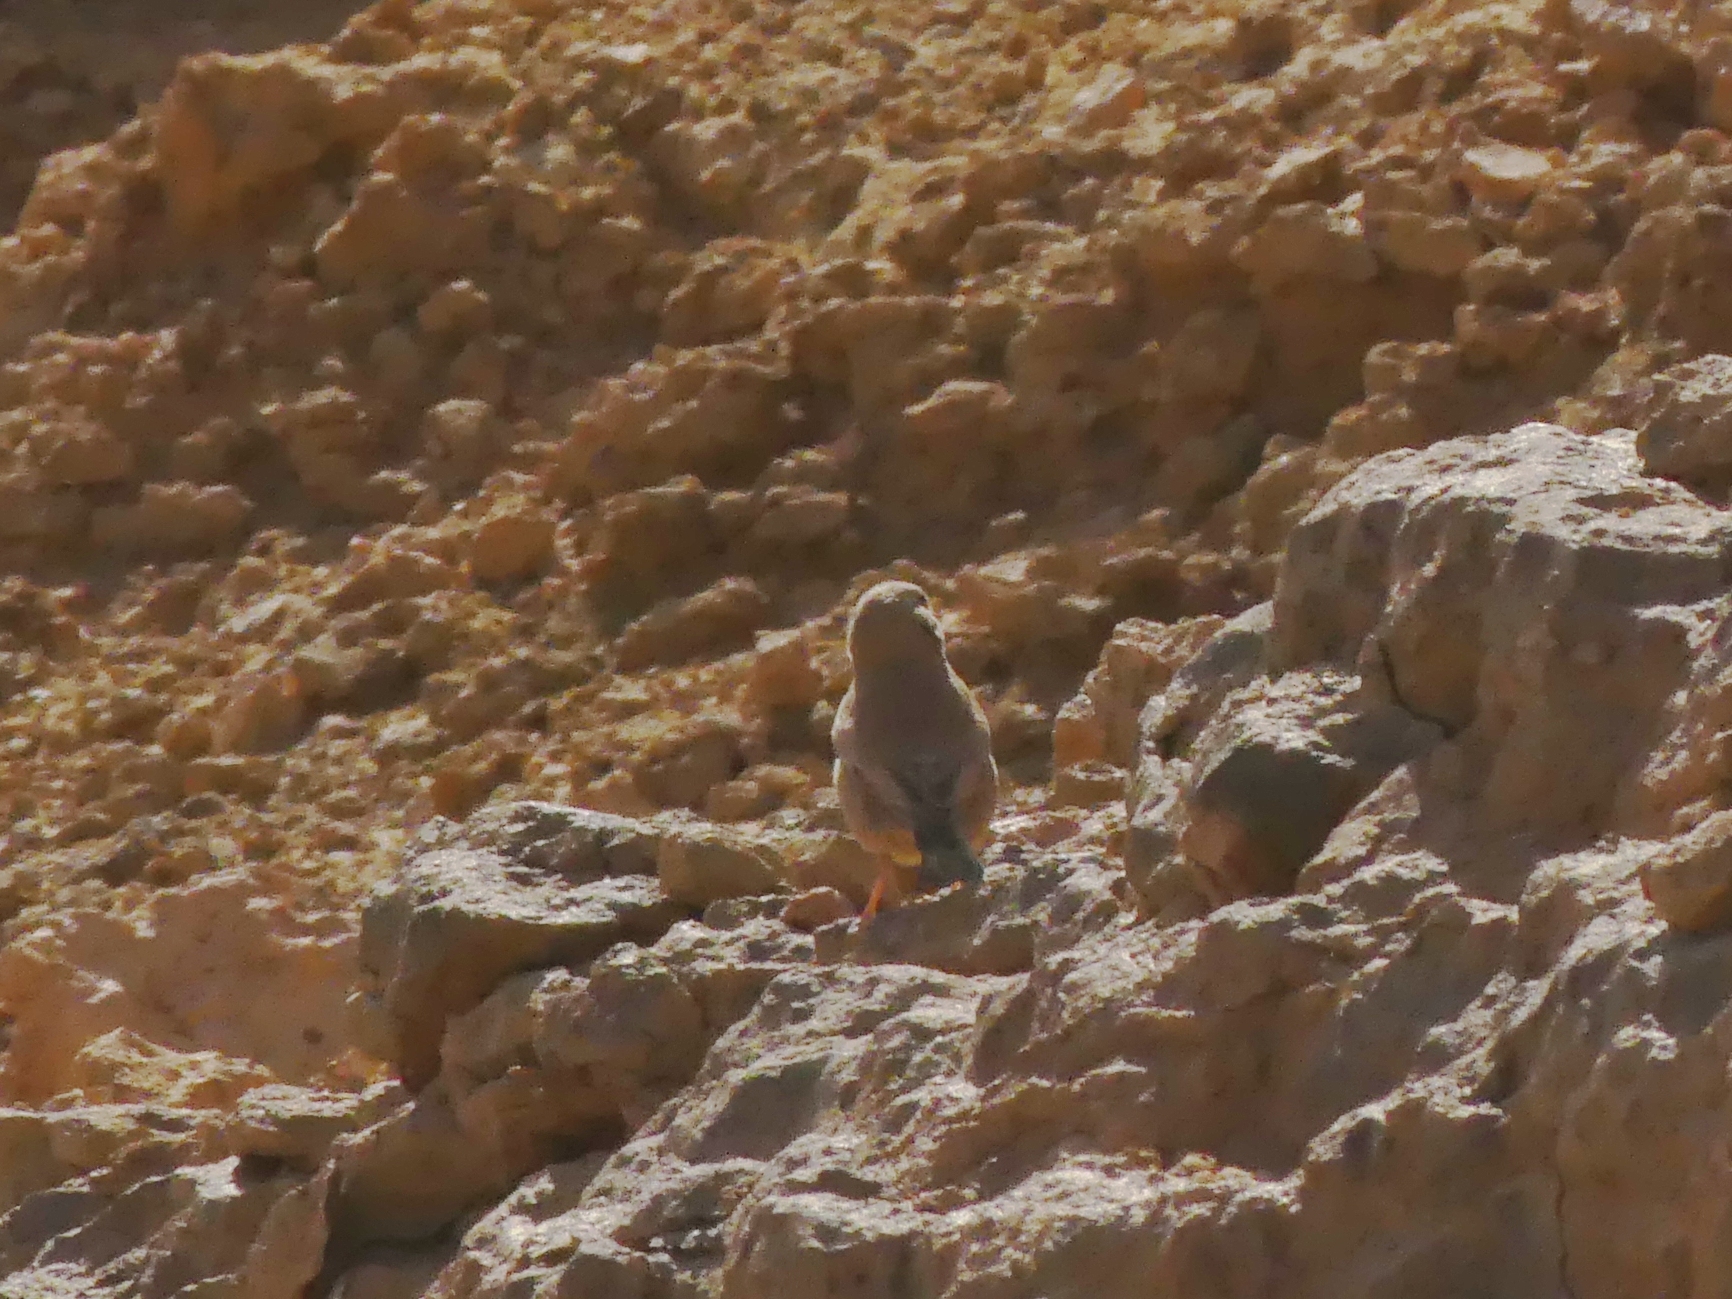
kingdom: Animalia
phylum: Chordata
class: Aves
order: Passeriformes
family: Fringillidae
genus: Bucanetes
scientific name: Bucanetes githagineus
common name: Trumpeter finch
